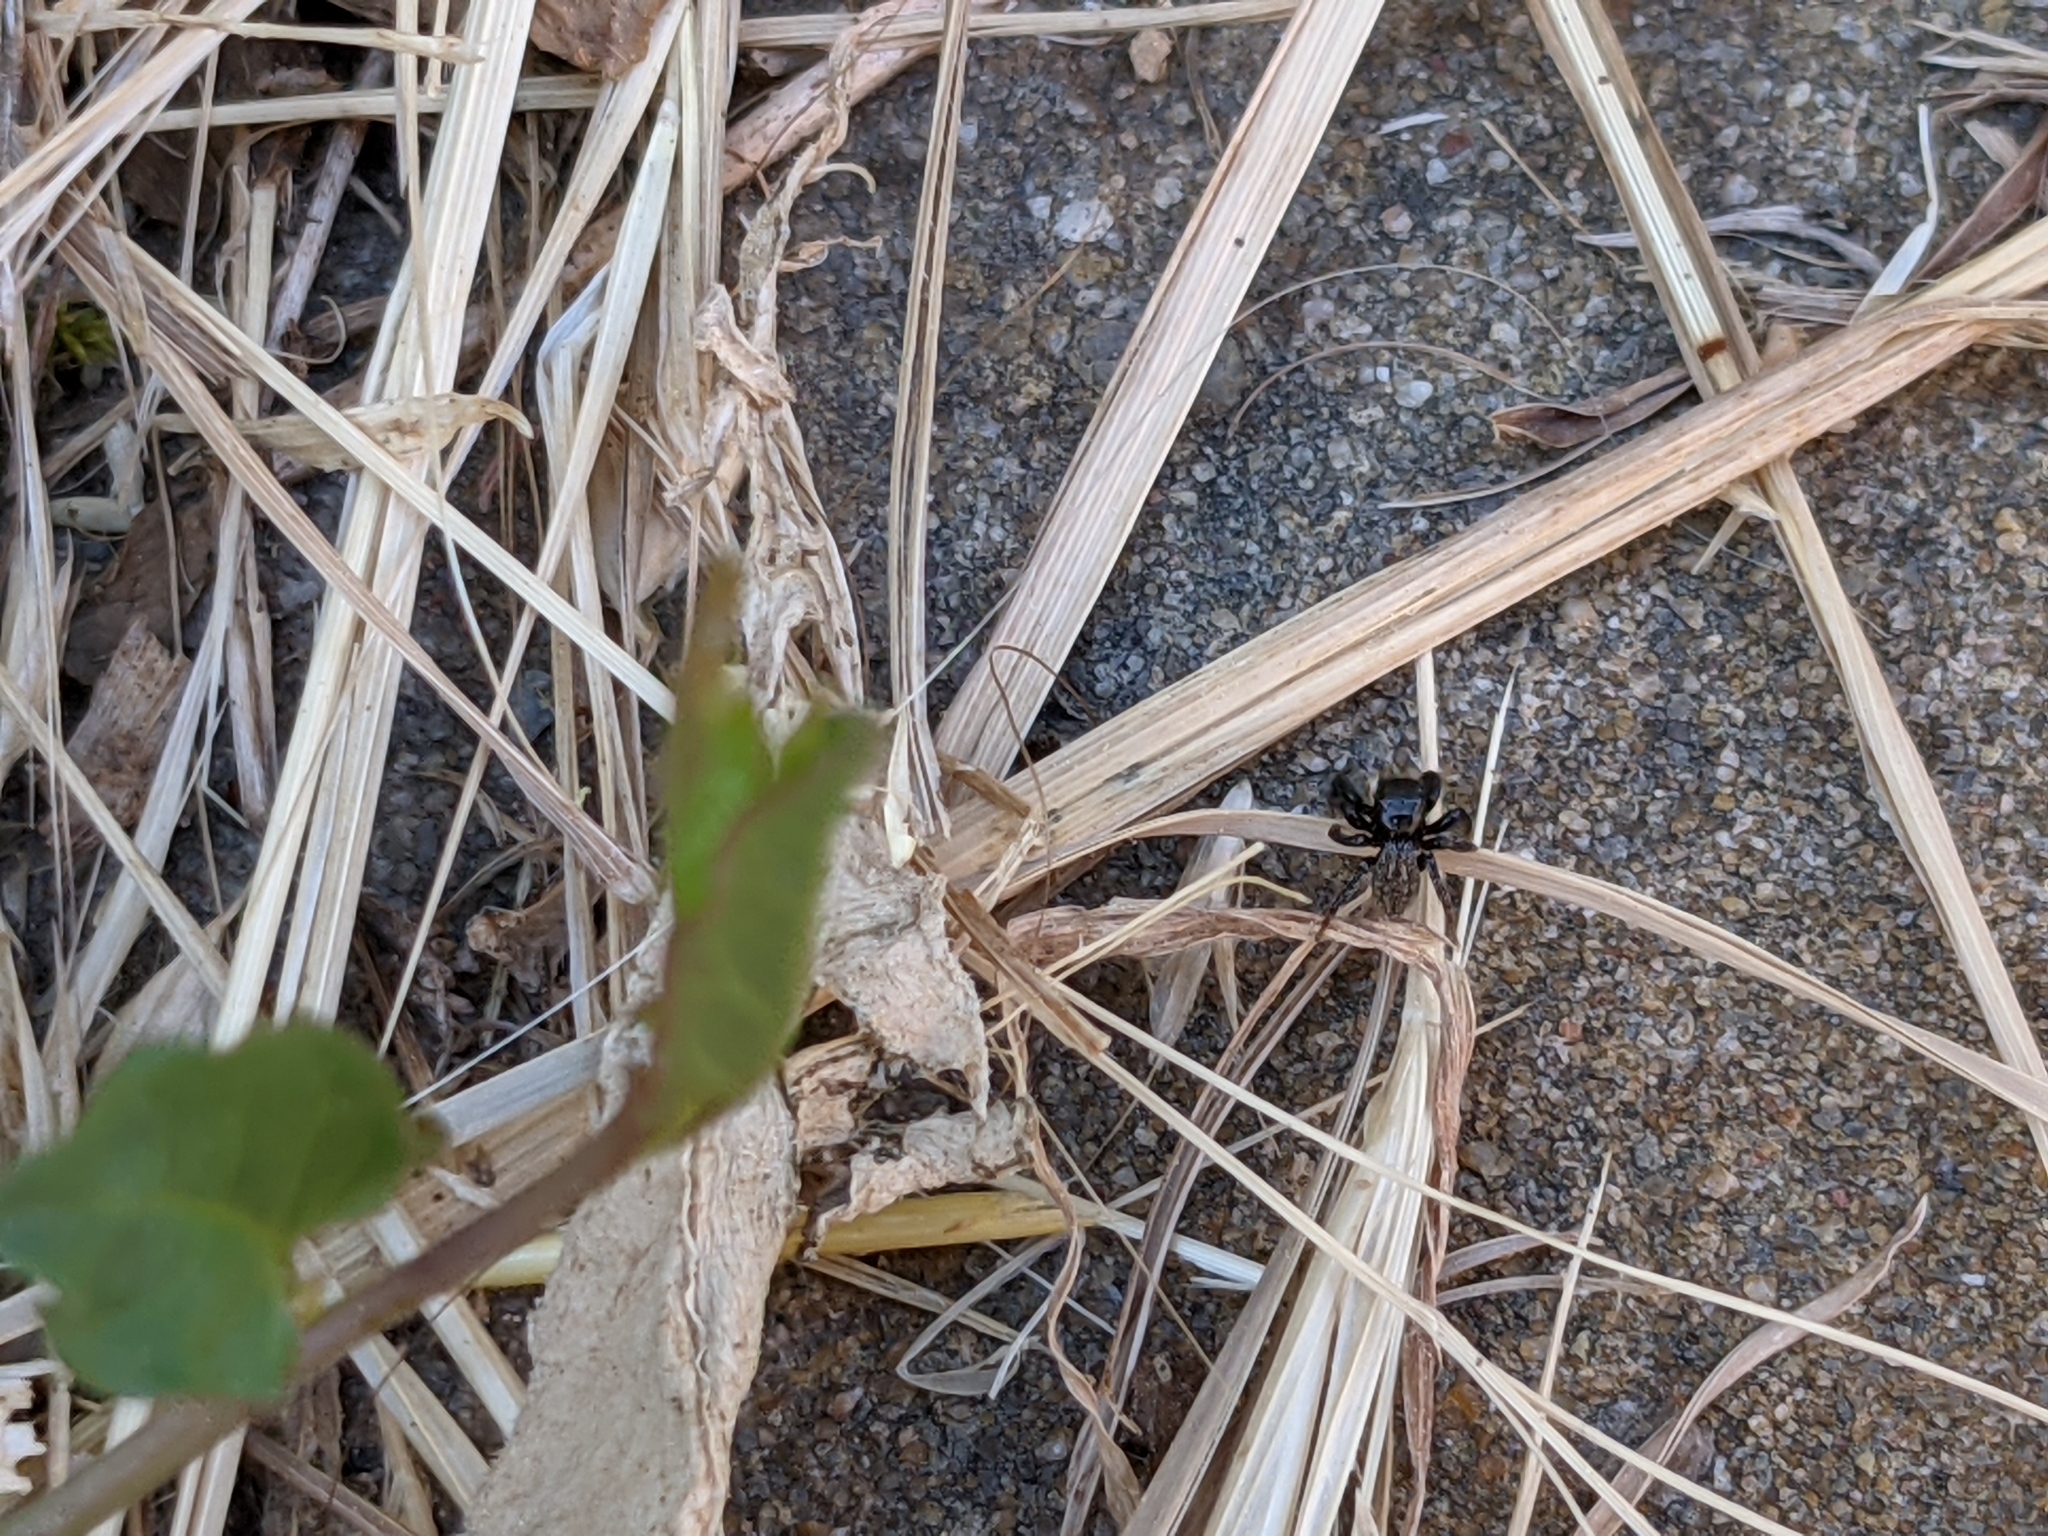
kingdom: Animalia
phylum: Arthropoda
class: Arachnida
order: Araneae
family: Salticidae
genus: Euophrys
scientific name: Euophrys
